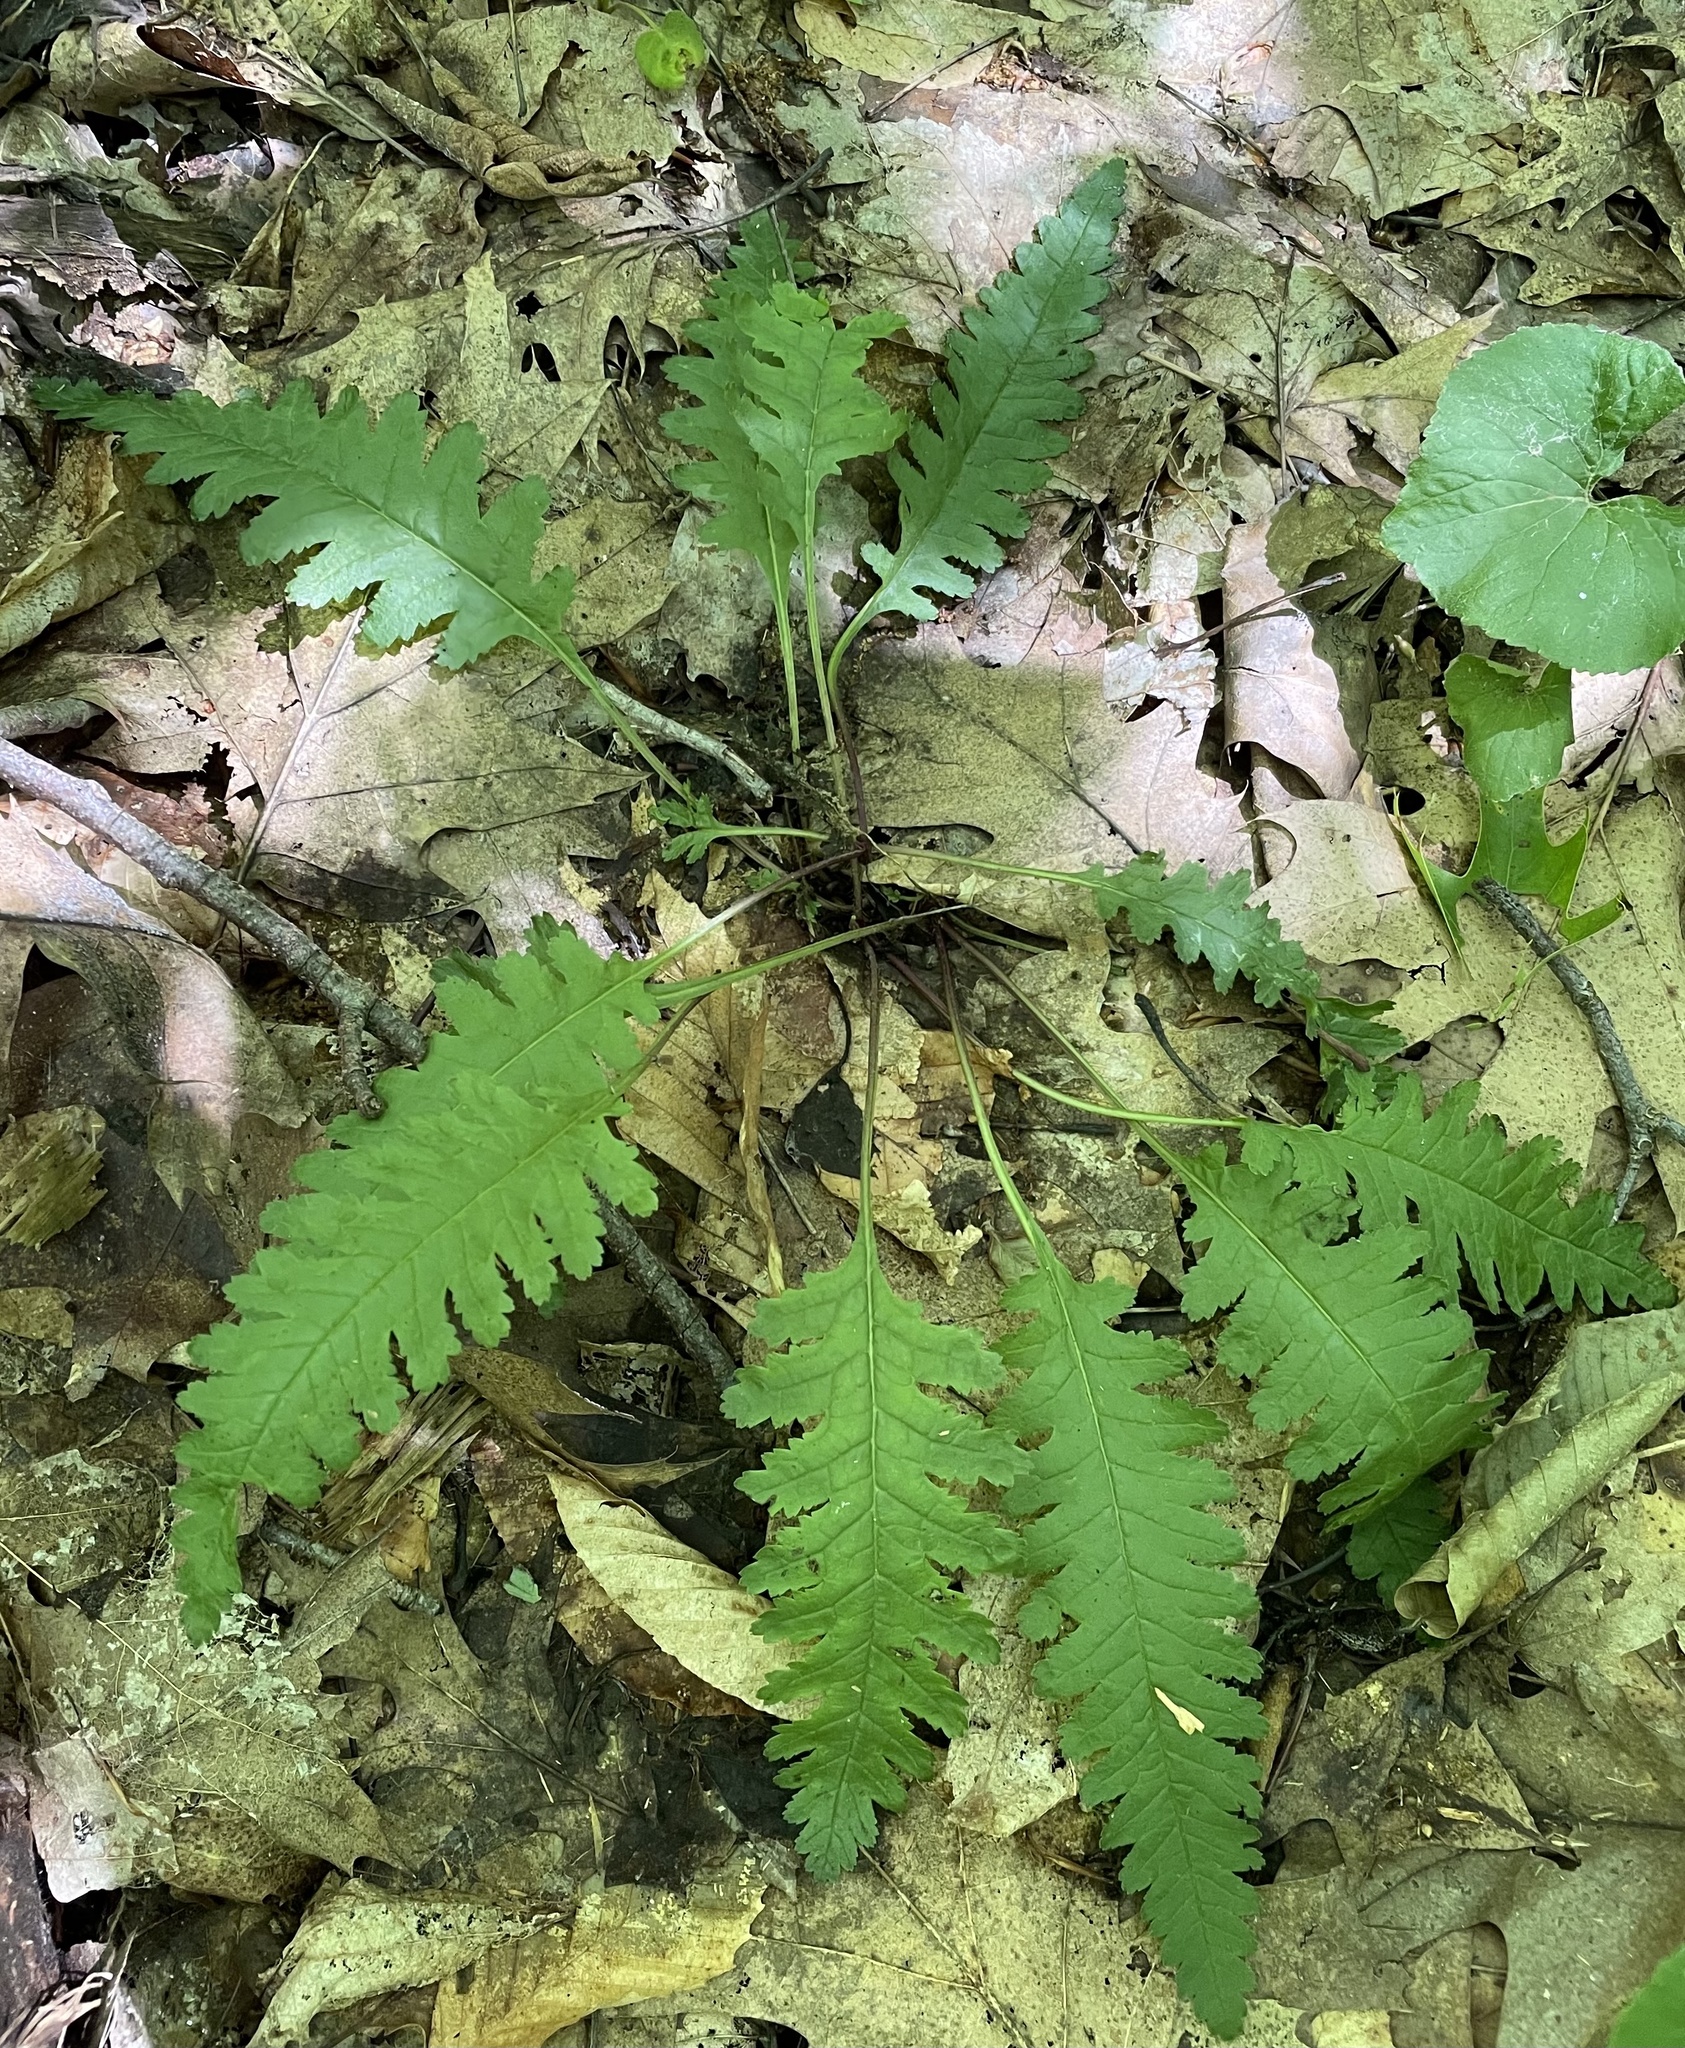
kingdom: Plantae
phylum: Tracheophyta
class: Magnoliopsida
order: Lamiales
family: Orobanchaceae
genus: Pedicularis
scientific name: Pedicularis canadensis
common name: Early lousewort
